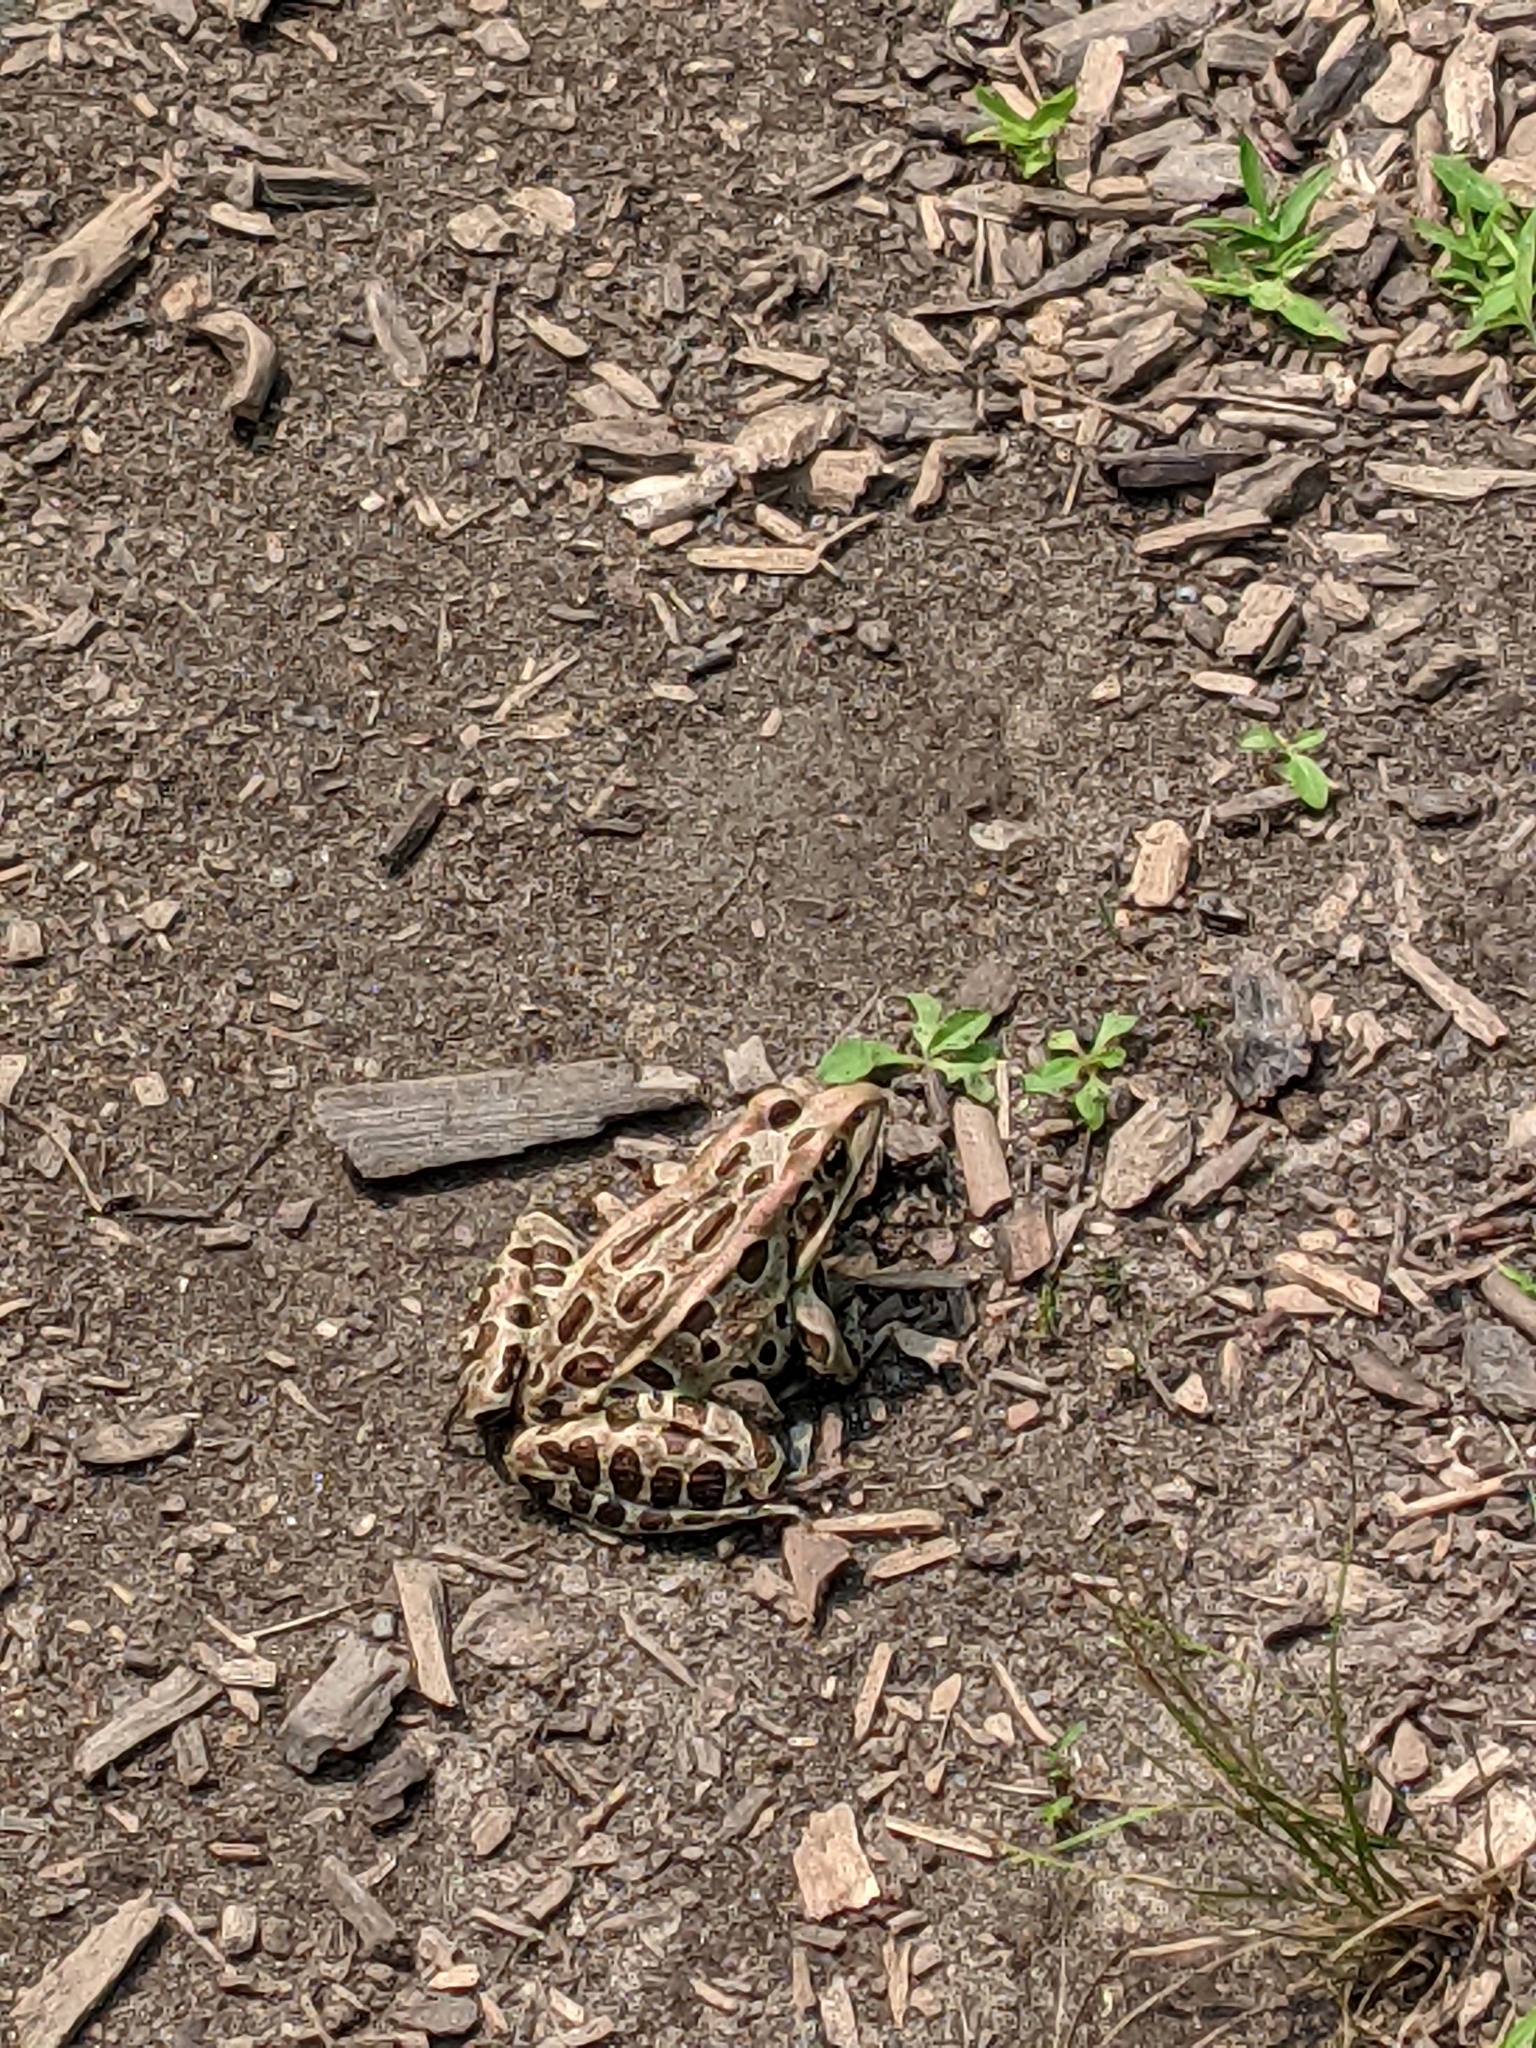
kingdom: Animalia
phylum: Chordata
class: Amphibia
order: Anura
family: Ranidae
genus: Lithobates
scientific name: Lithobates pipiens
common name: Northern leopard frog
